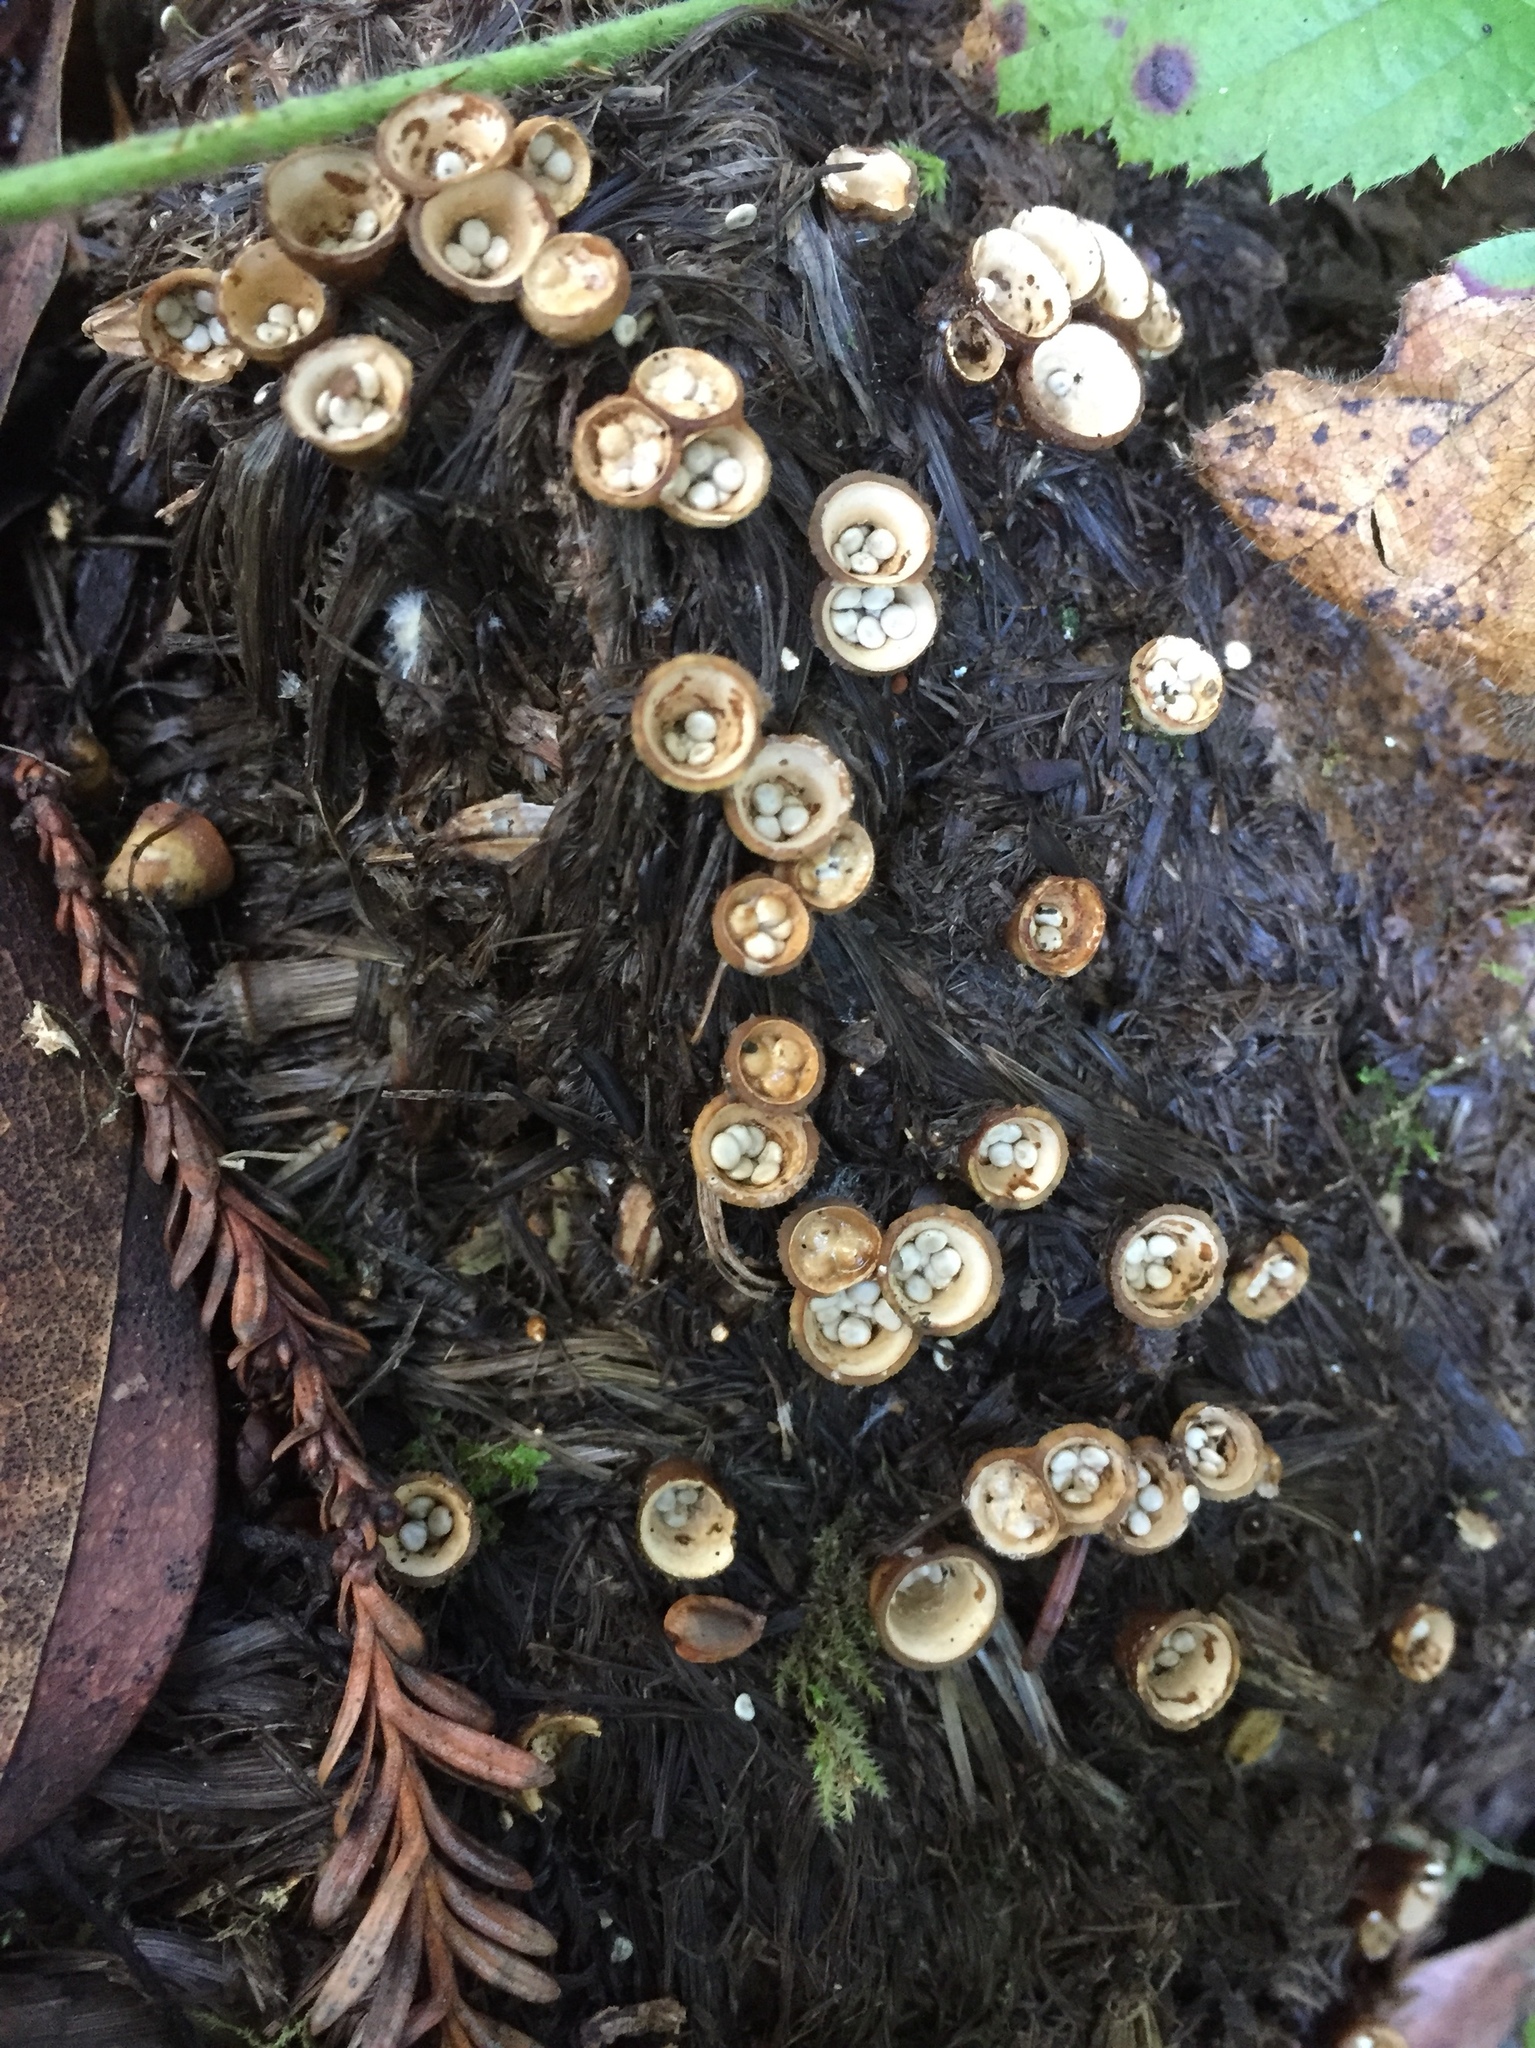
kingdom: Fungi
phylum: Basidiomycota
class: Agaricomycetes
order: Agaricales
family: Nidulariaceae
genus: Crucibulum
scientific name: Crucibulum laeve
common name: Common bird's nest
